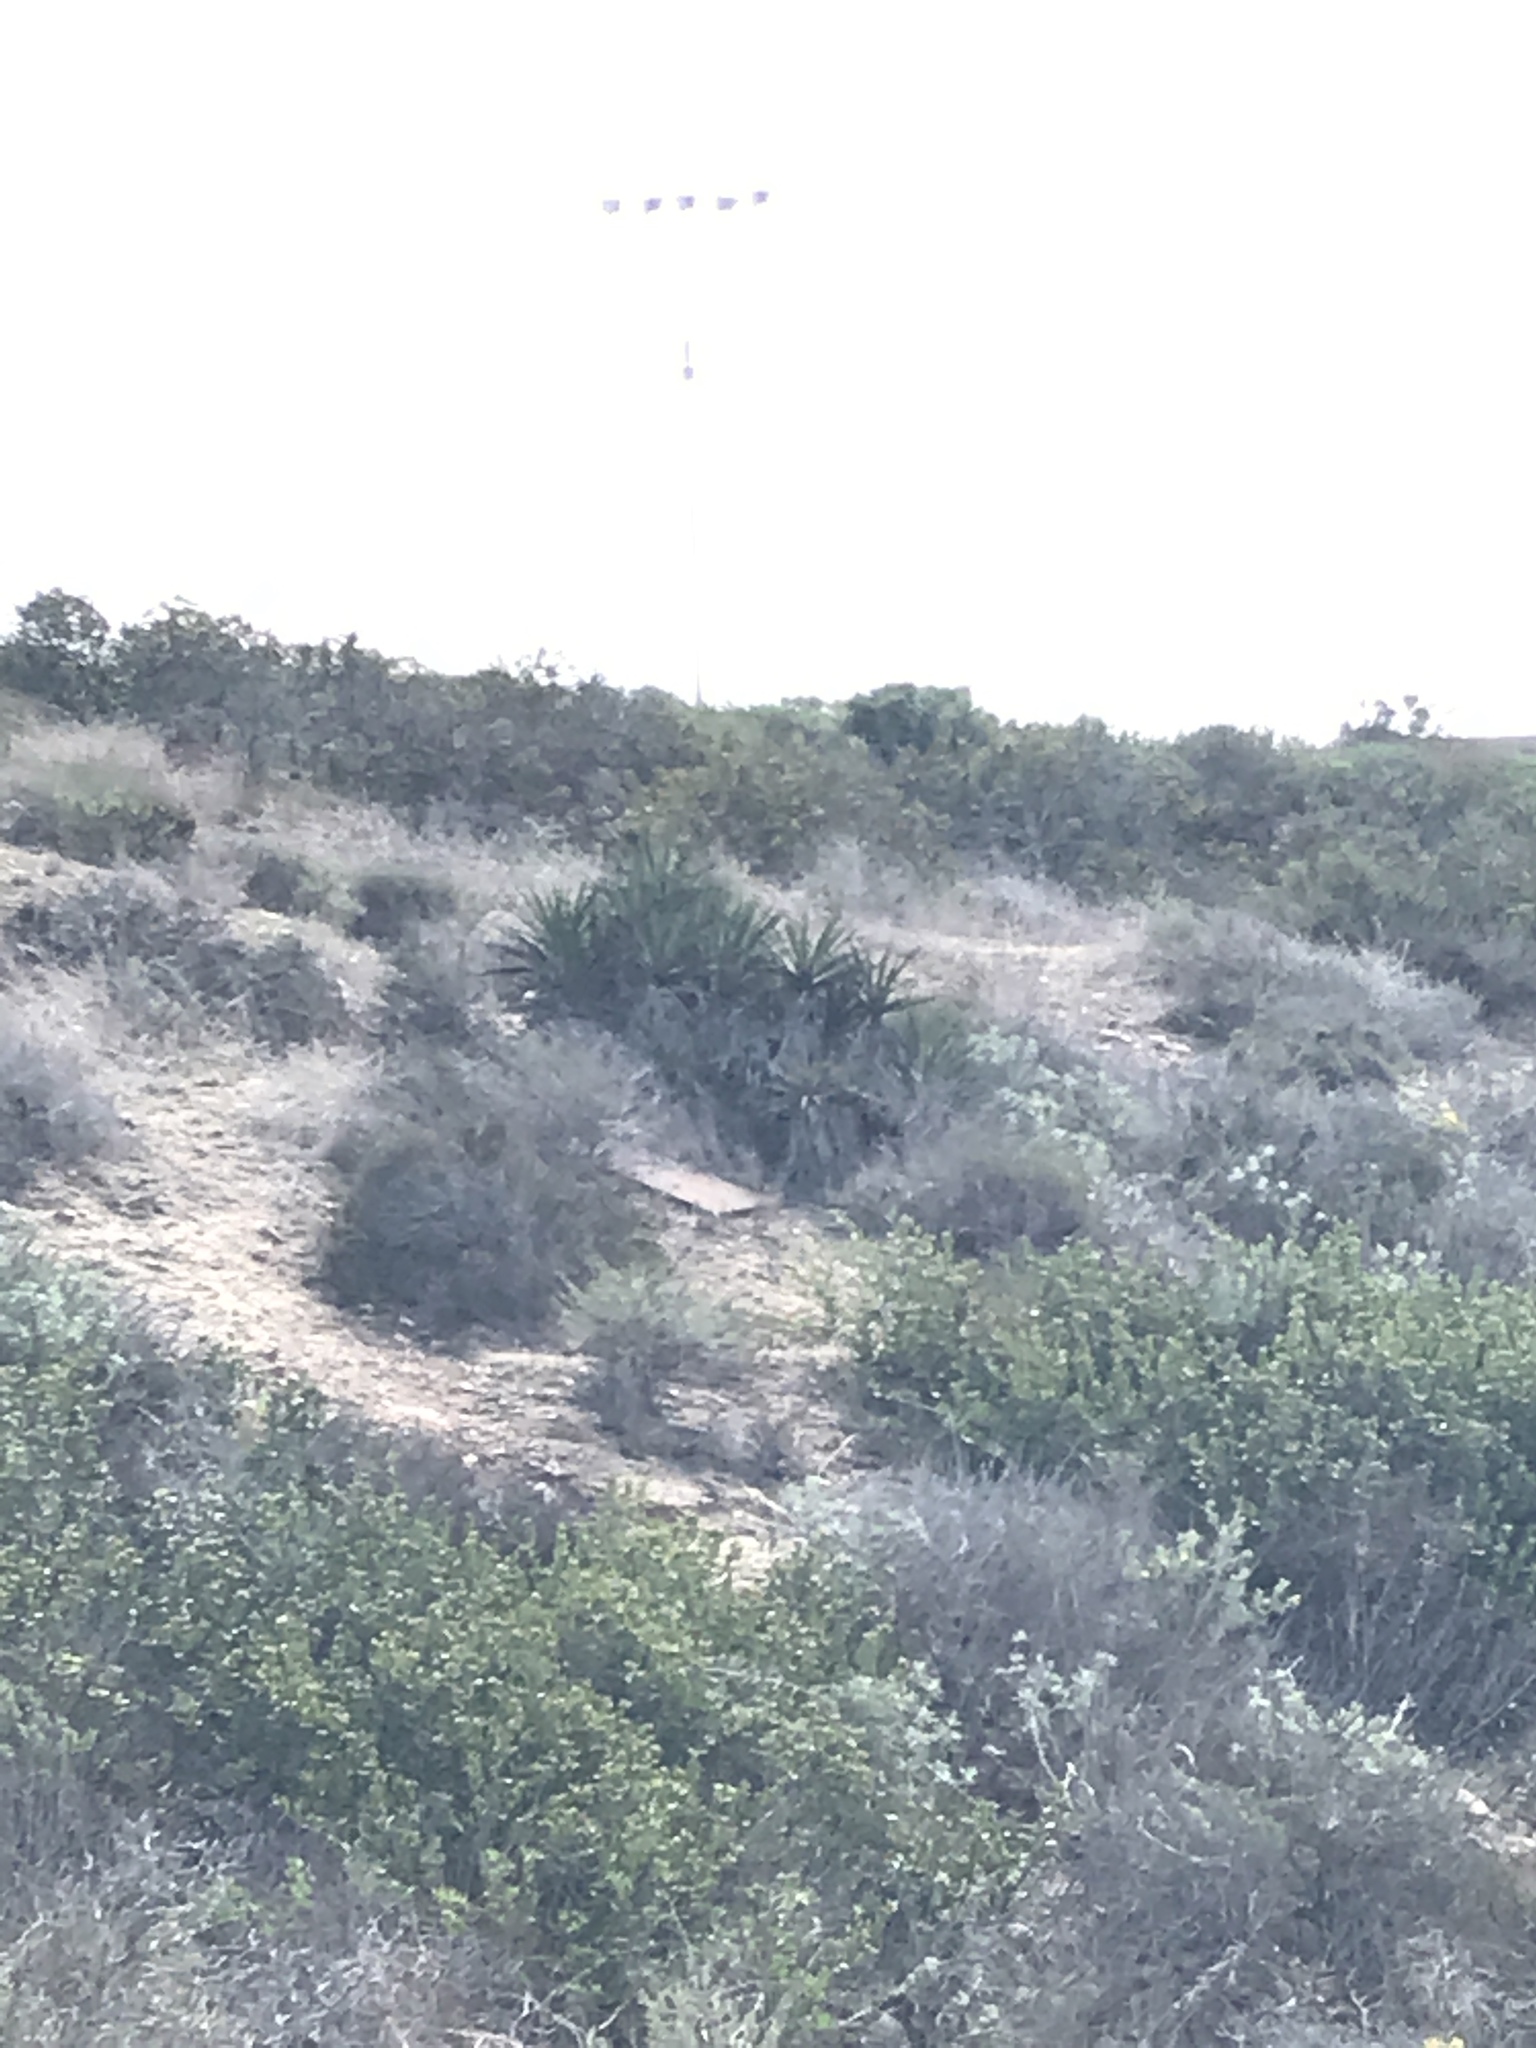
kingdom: Plantae
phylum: Tracheophyta
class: Liliopsida
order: Asparagales
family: Asparagaceae
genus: Yucca
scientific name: Yucca schidigera
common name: Mojave yucca
